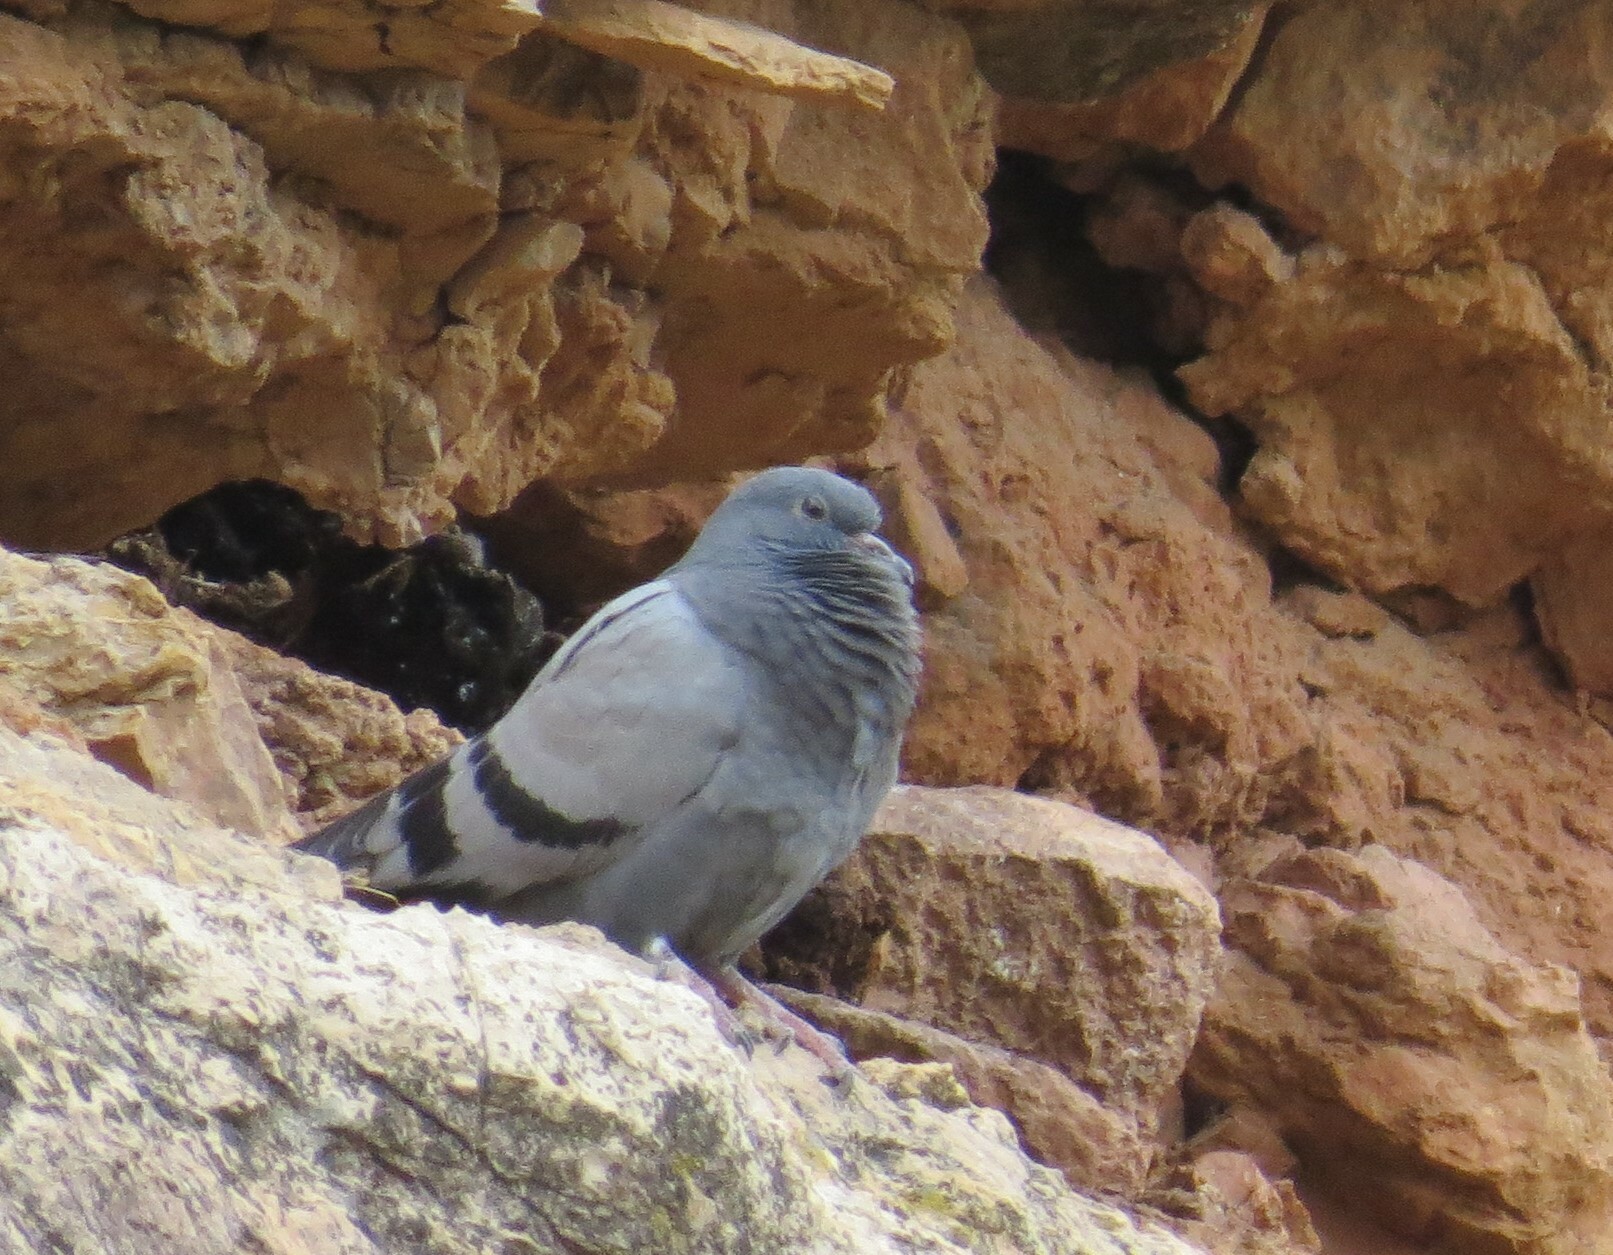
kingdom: Animalia
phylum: Chordata
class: Aves
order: Columbiformes
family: Columbidae
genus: Columba
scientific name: Columba livia
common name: Rock pigeon
